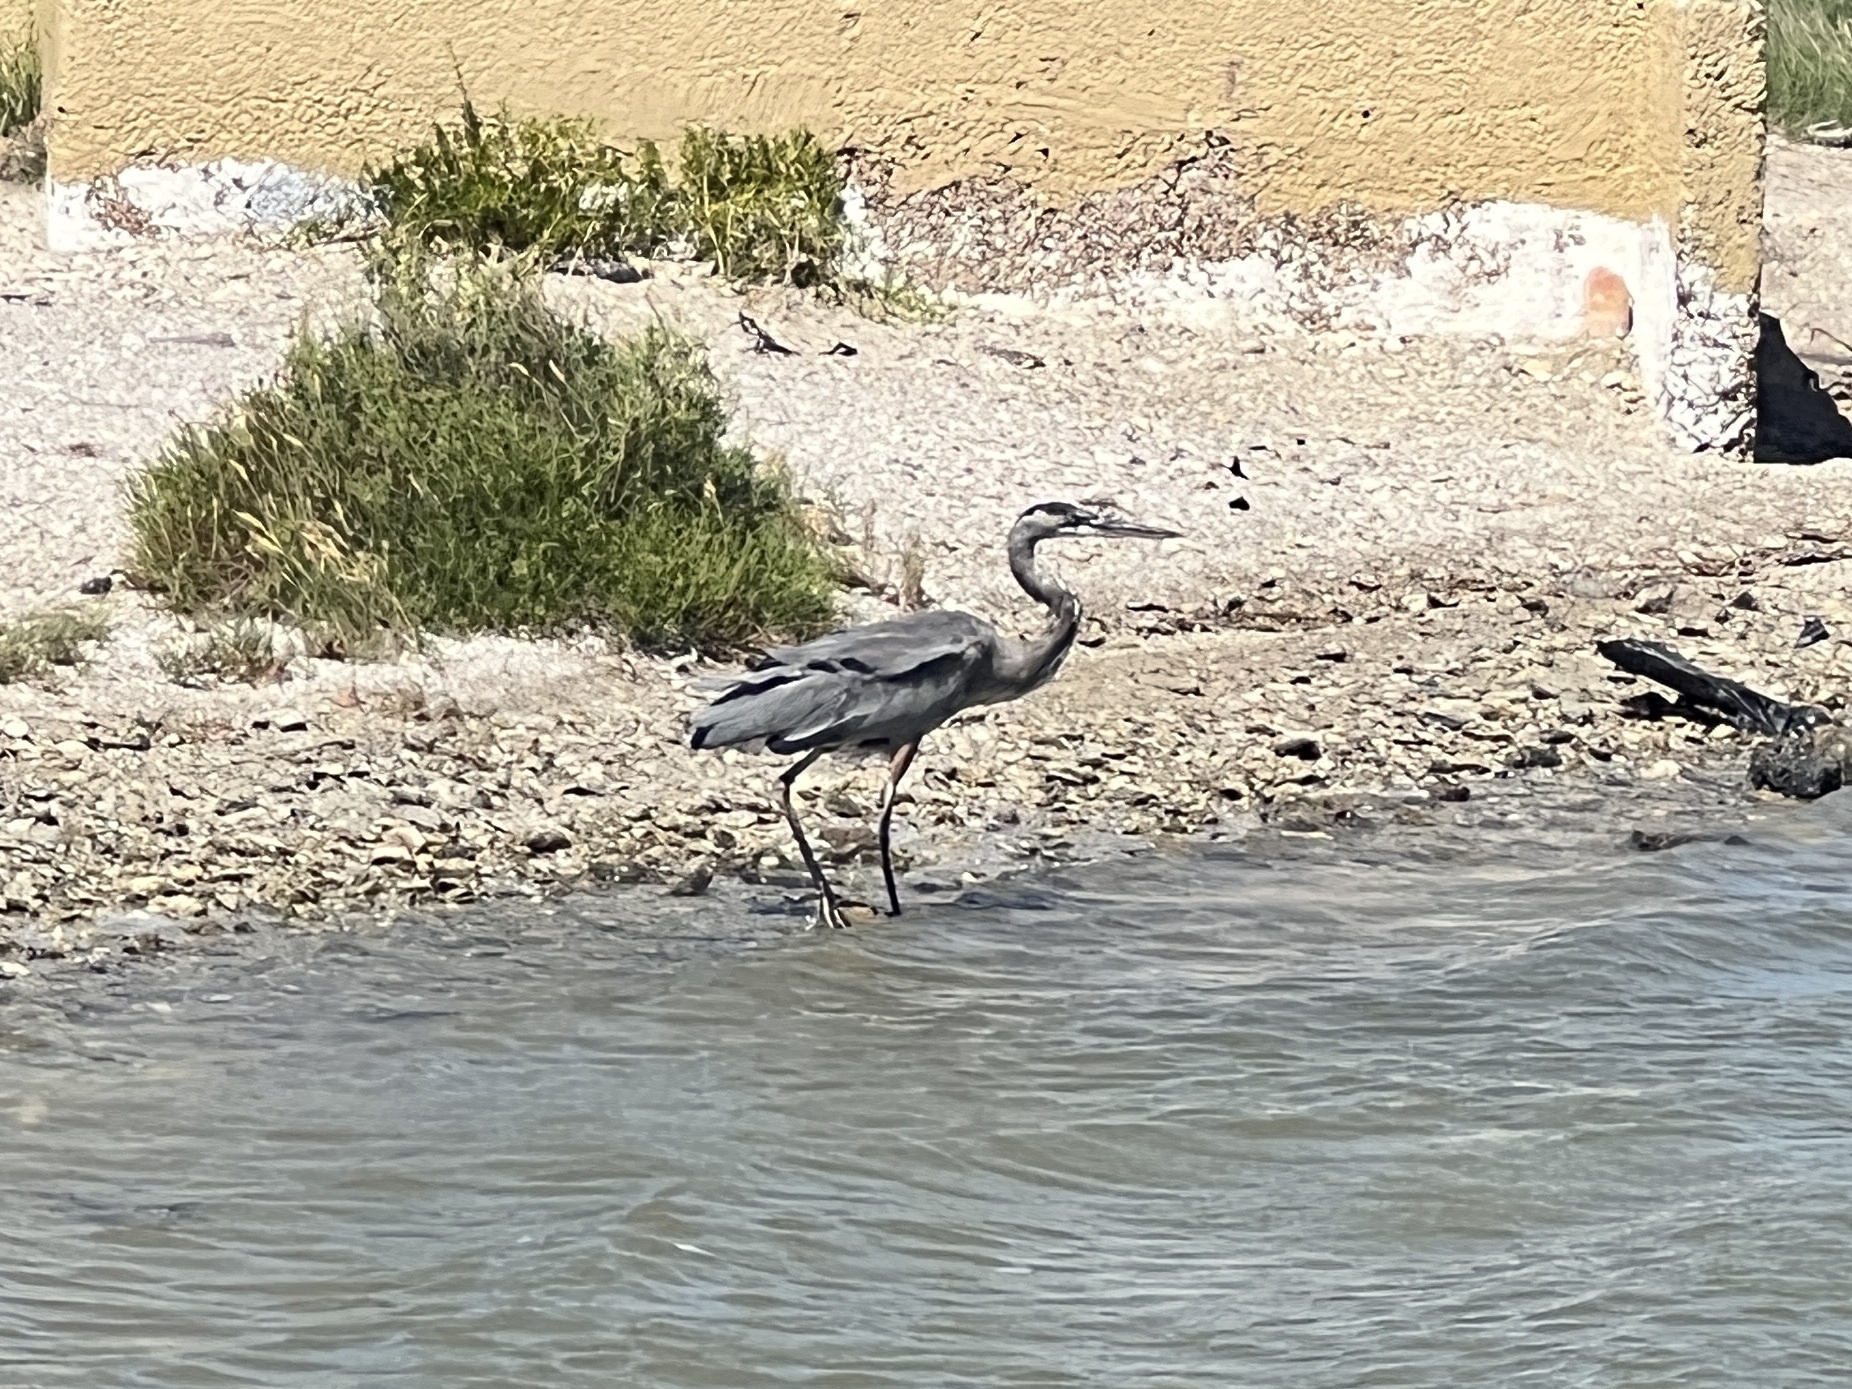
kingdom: Animalia
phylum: Chordata
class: Aves
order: Pelecaniformes
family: Ardeidae
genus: Ardea
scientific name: Ardea herodias
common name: Great blue heron
